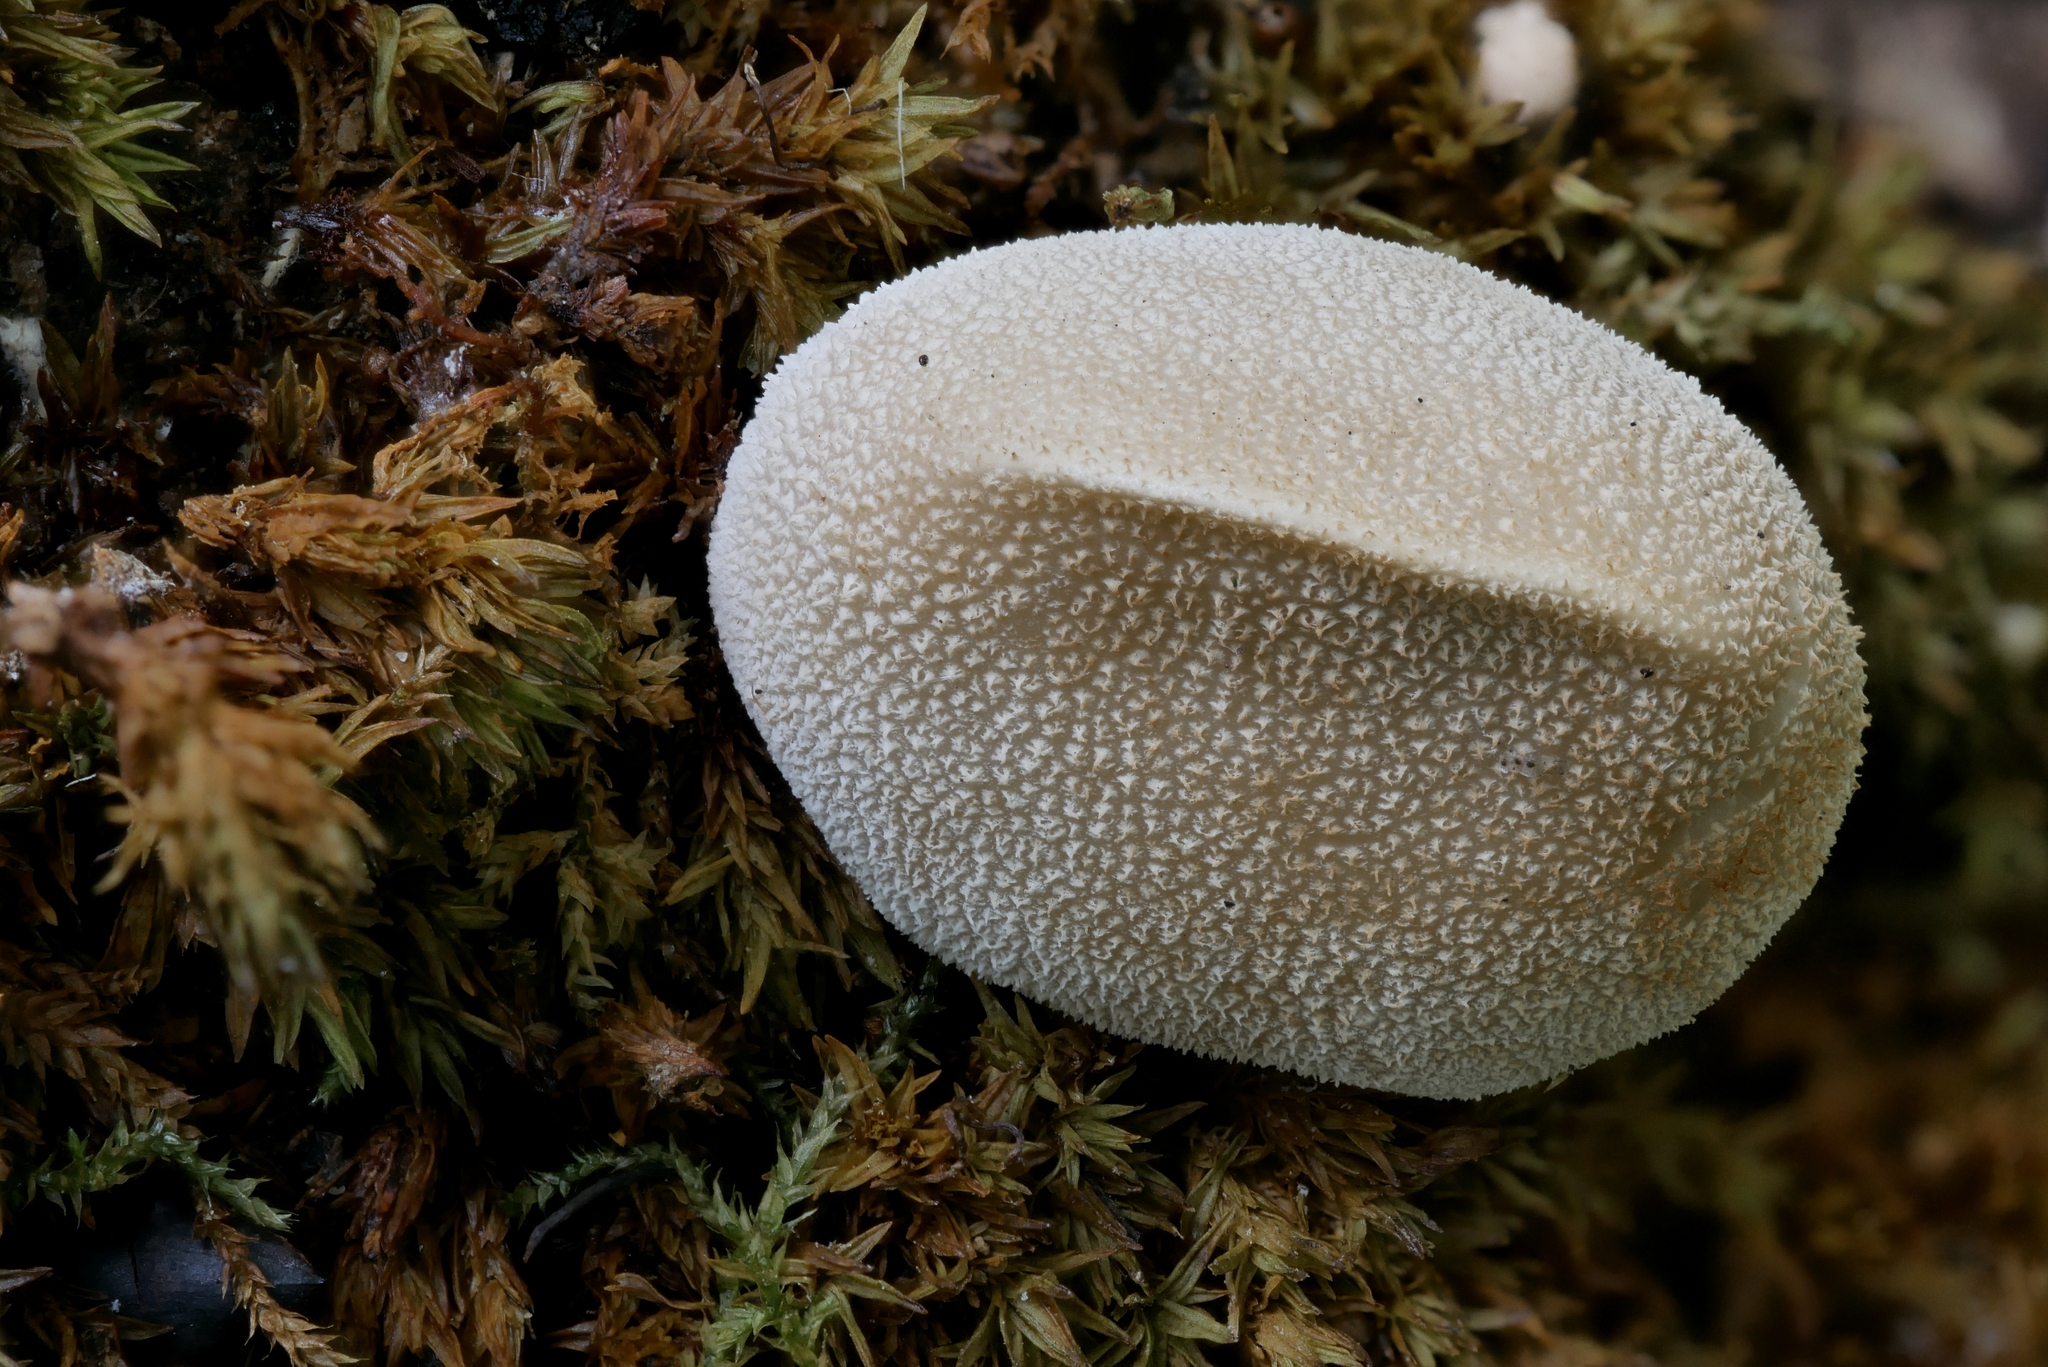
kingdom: Fungi
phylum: Basidiomycota
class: Agaricomycetes
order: Agaricales
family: Lycoperdaceae
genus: Bryoperdon
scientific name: Bryoperdon acuminatum
